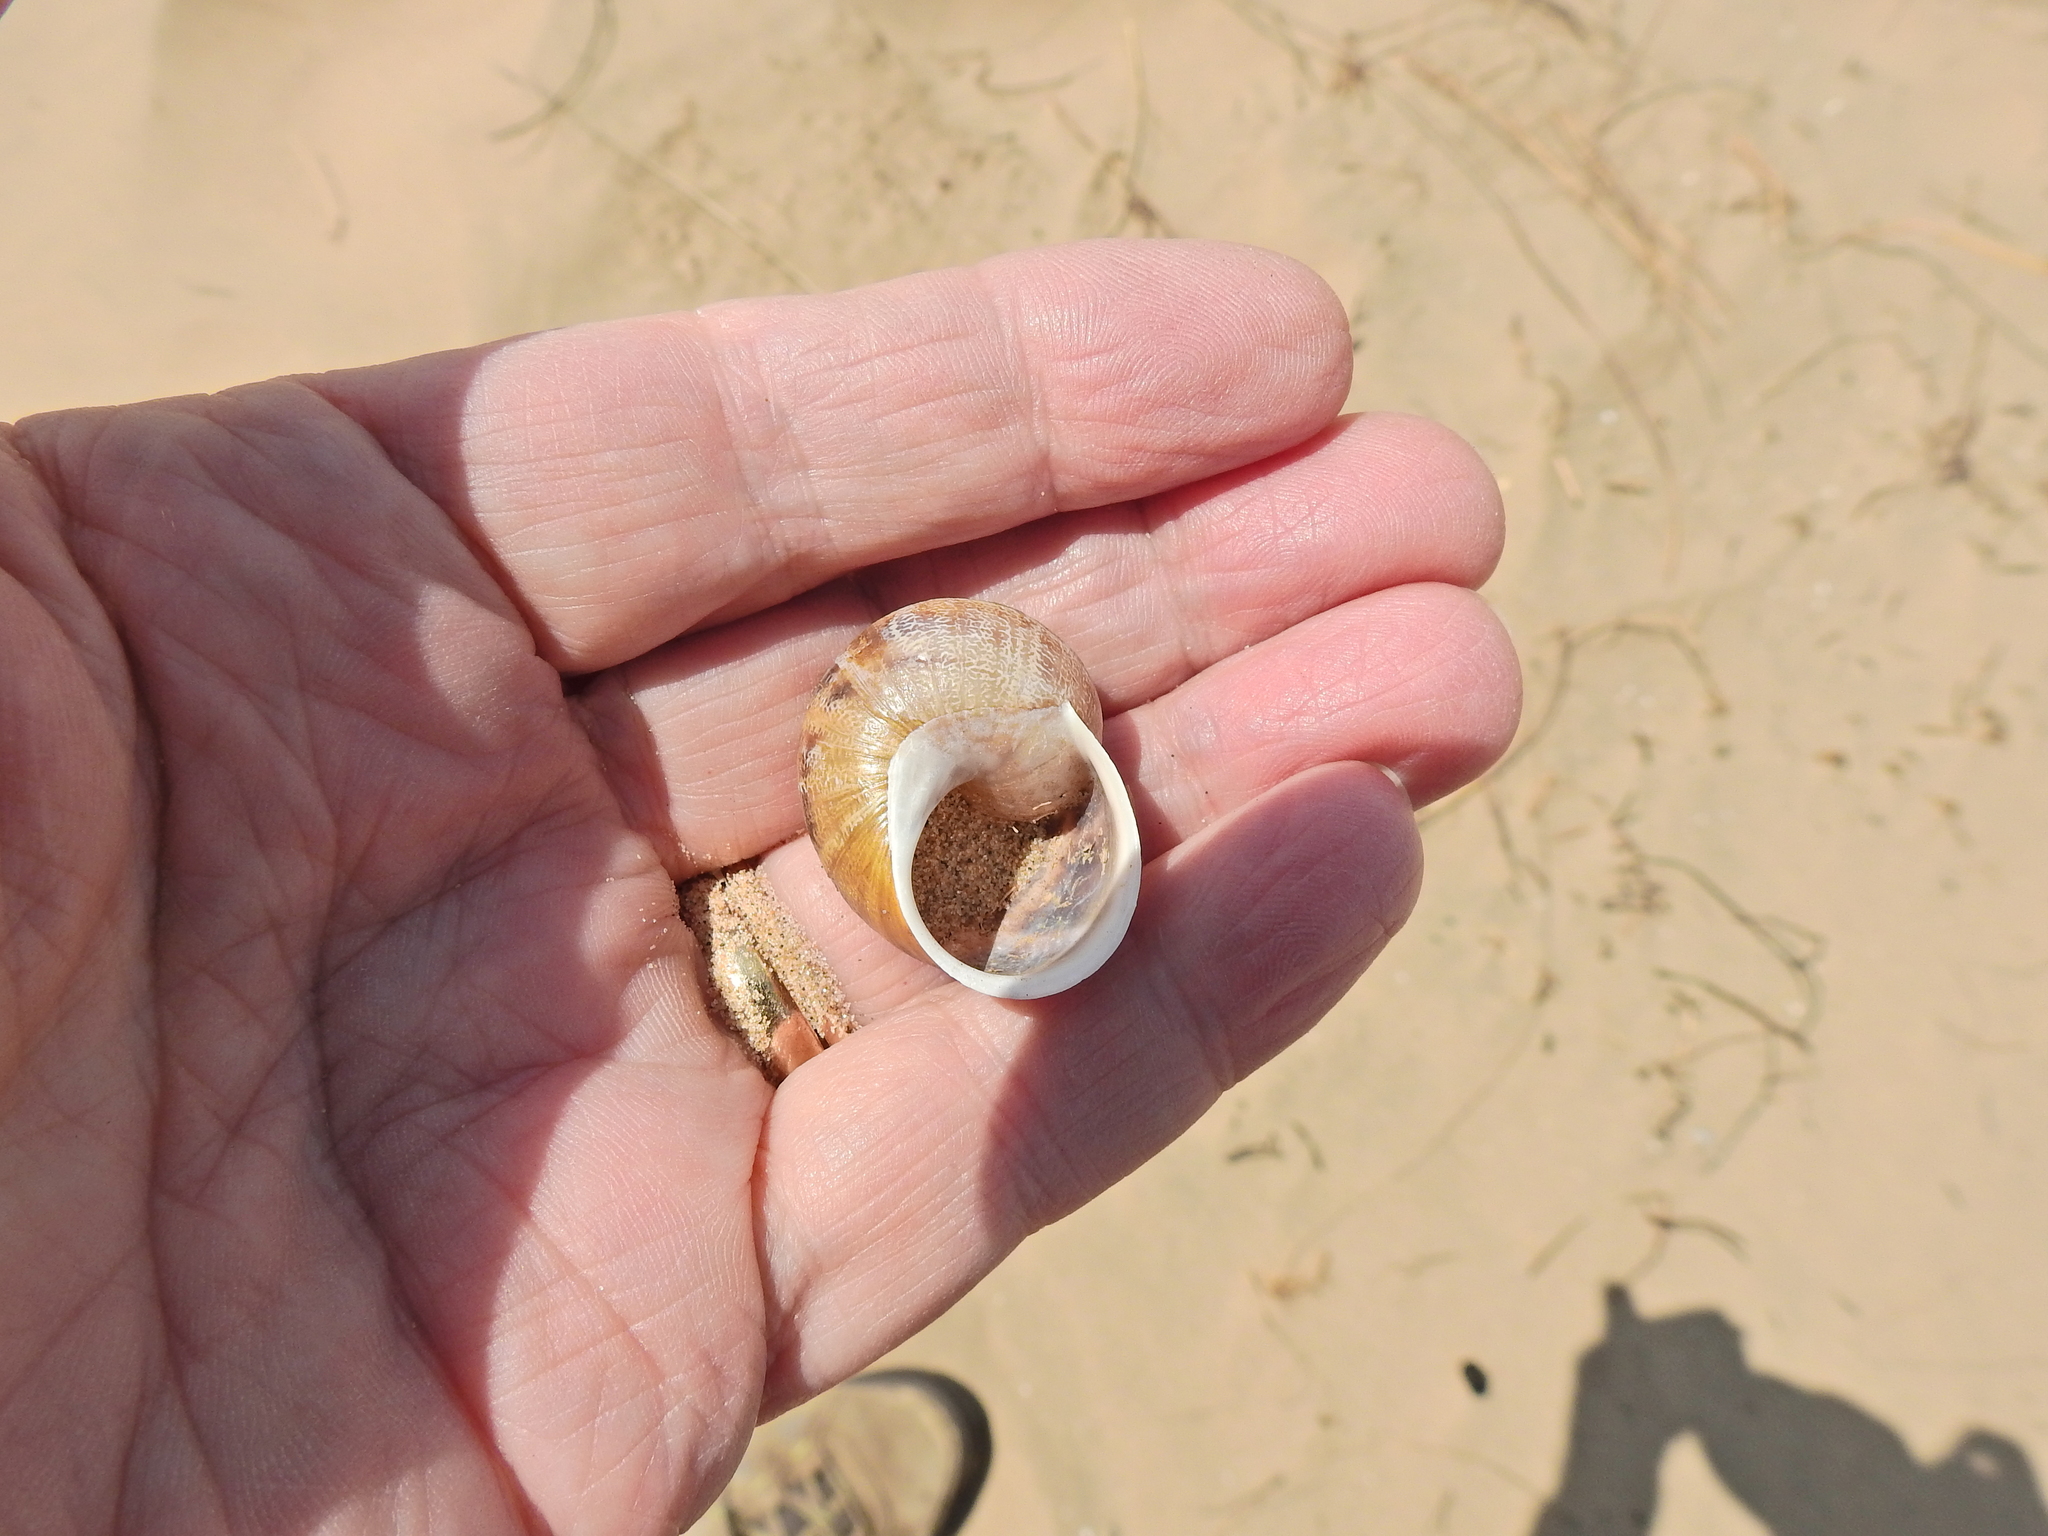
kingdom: Animalia
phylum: Mollusca
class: Gastropoda
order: Stylommatophora
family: Helicidae
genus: Cornu
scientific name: Cornu aspersum
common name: Brown garden snail
